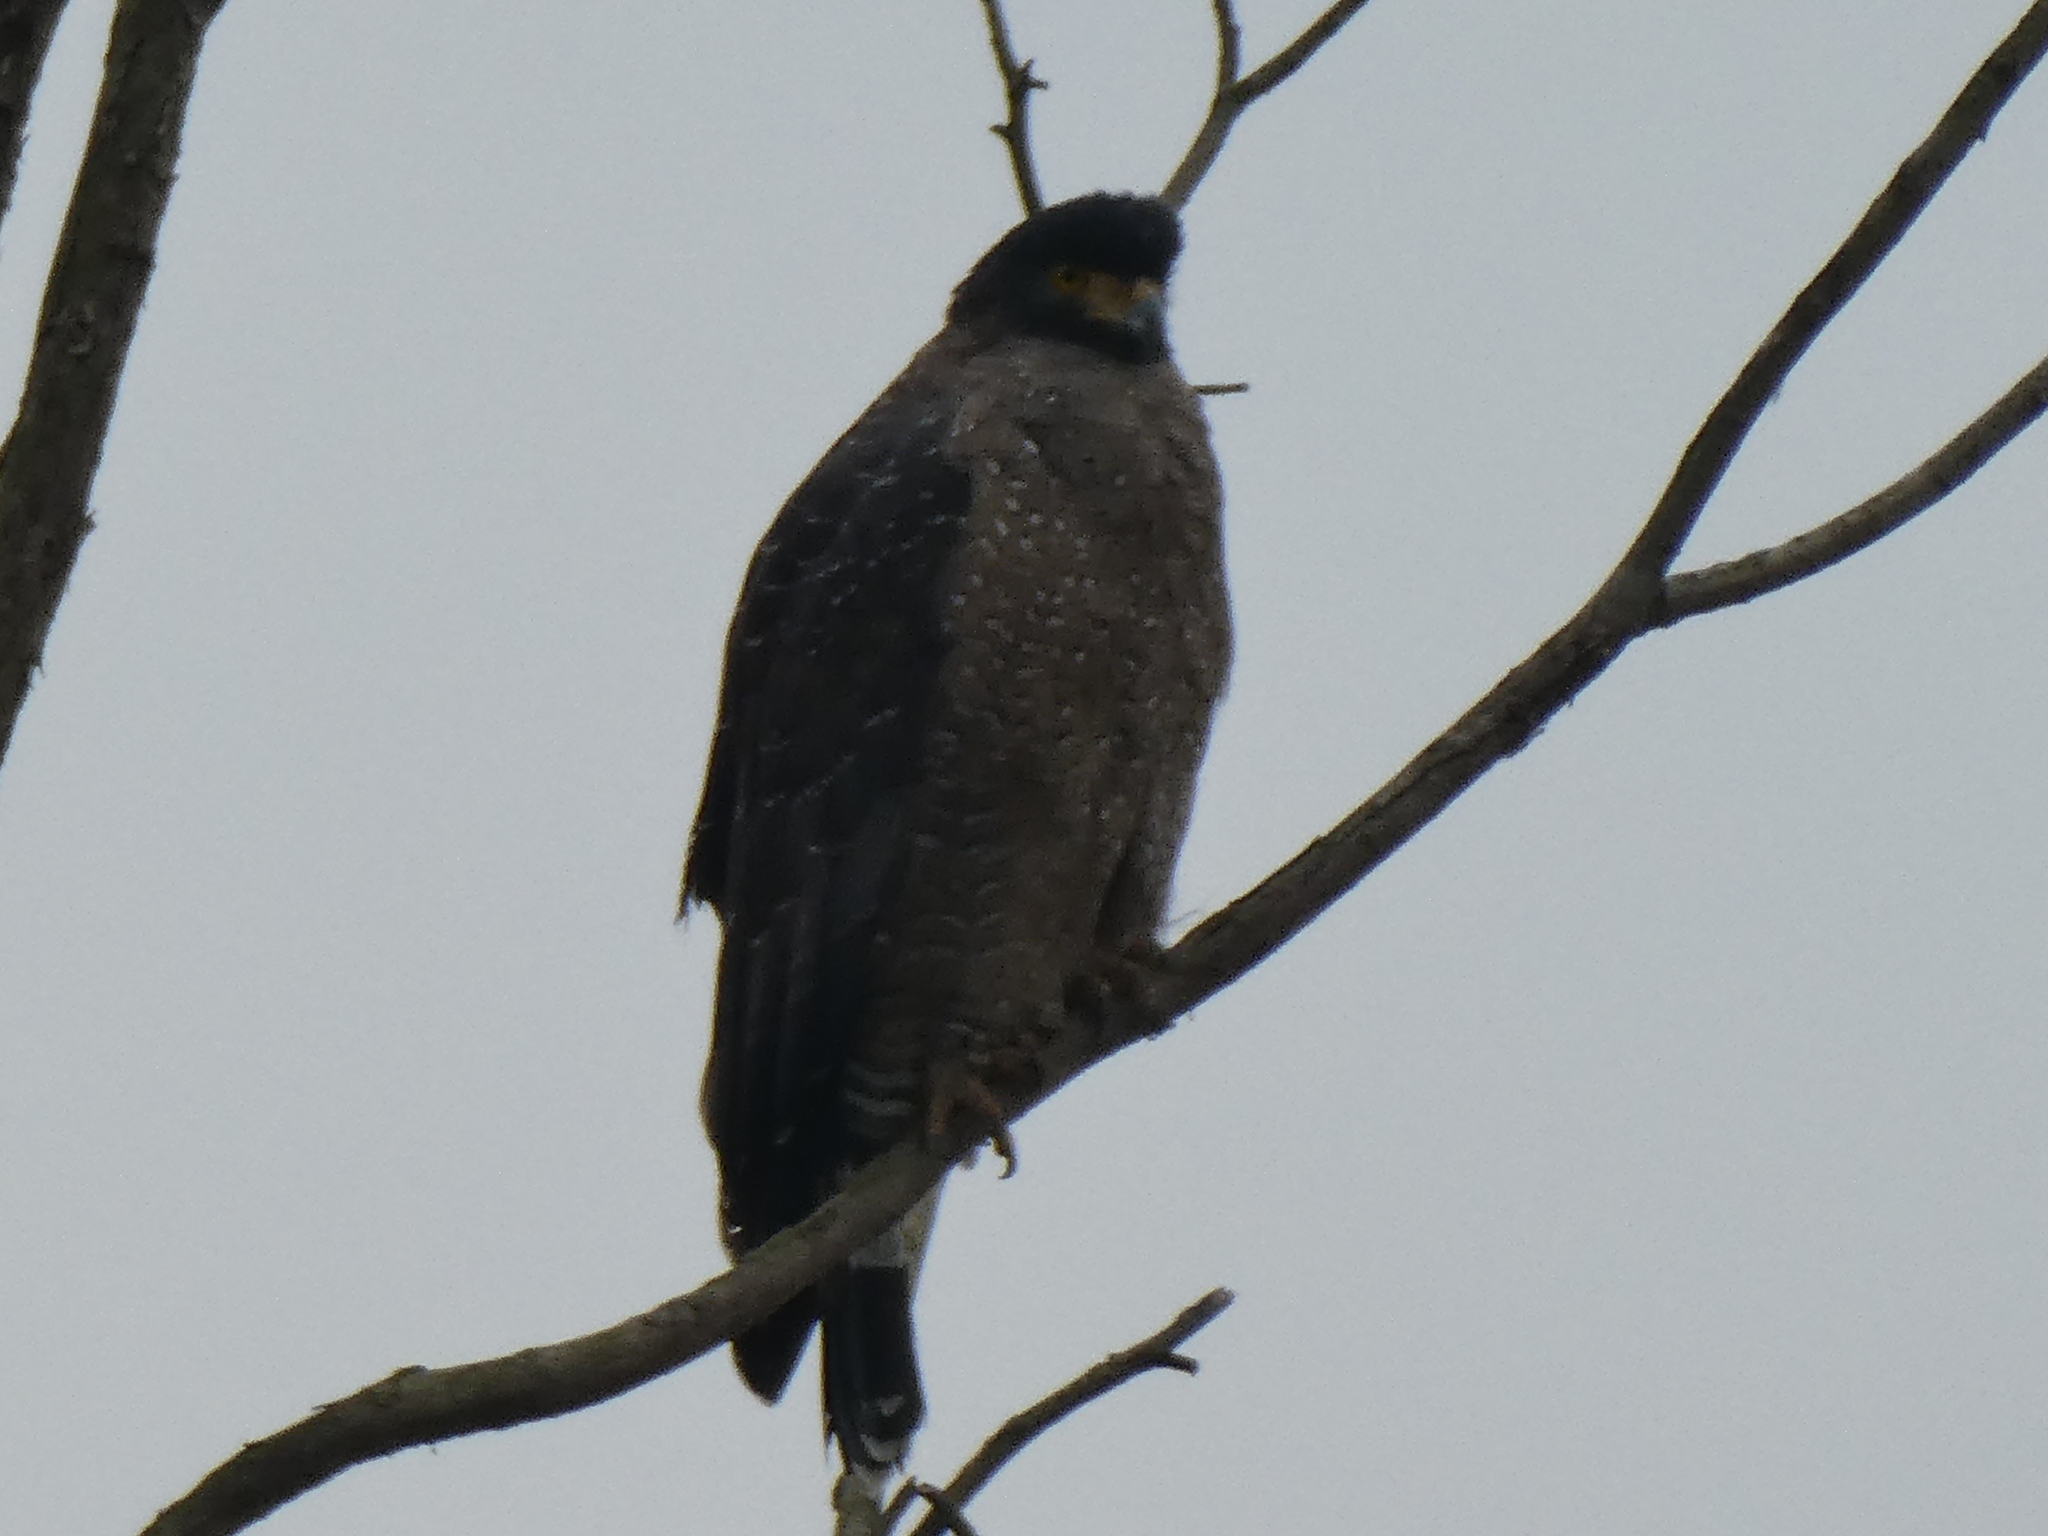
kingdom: Animalia
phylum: Chordata
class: Aves
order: Accipitriformes
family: Accipitridae
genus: Spilornis
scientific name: Spilornis cheela
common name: Crested serpent eagle
